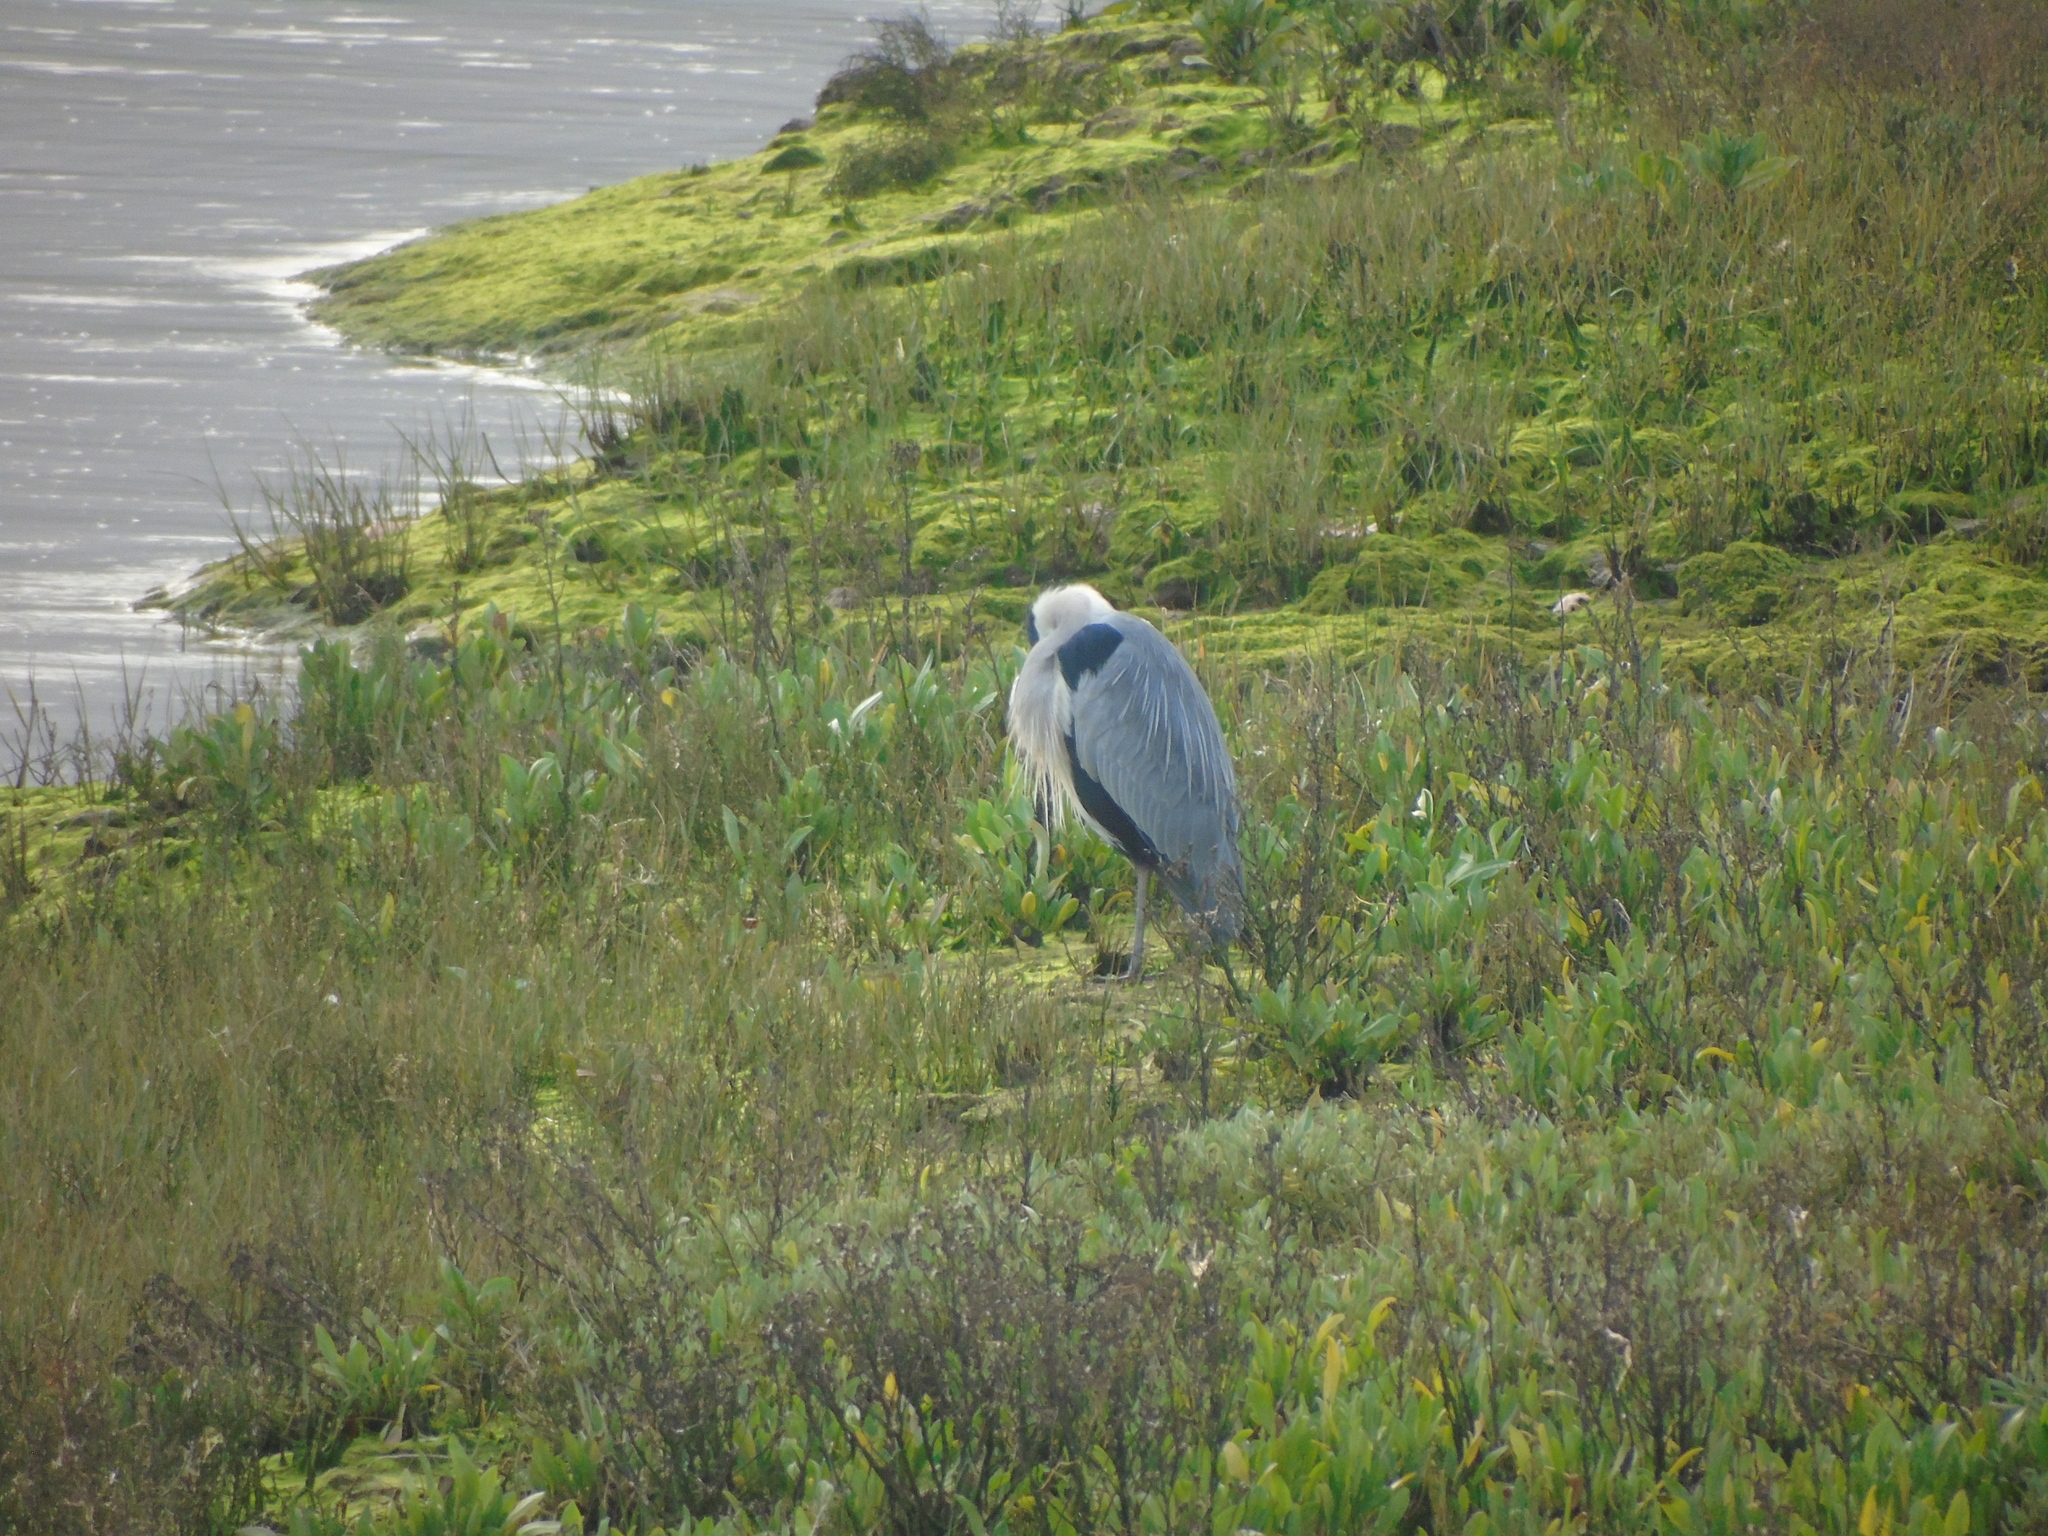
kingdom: Animalia
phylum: Chordata
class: Aves
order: Pelecaniformes
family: Ardeidae
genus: Ardea
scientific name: Ardea cinerea
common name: Grey heron
